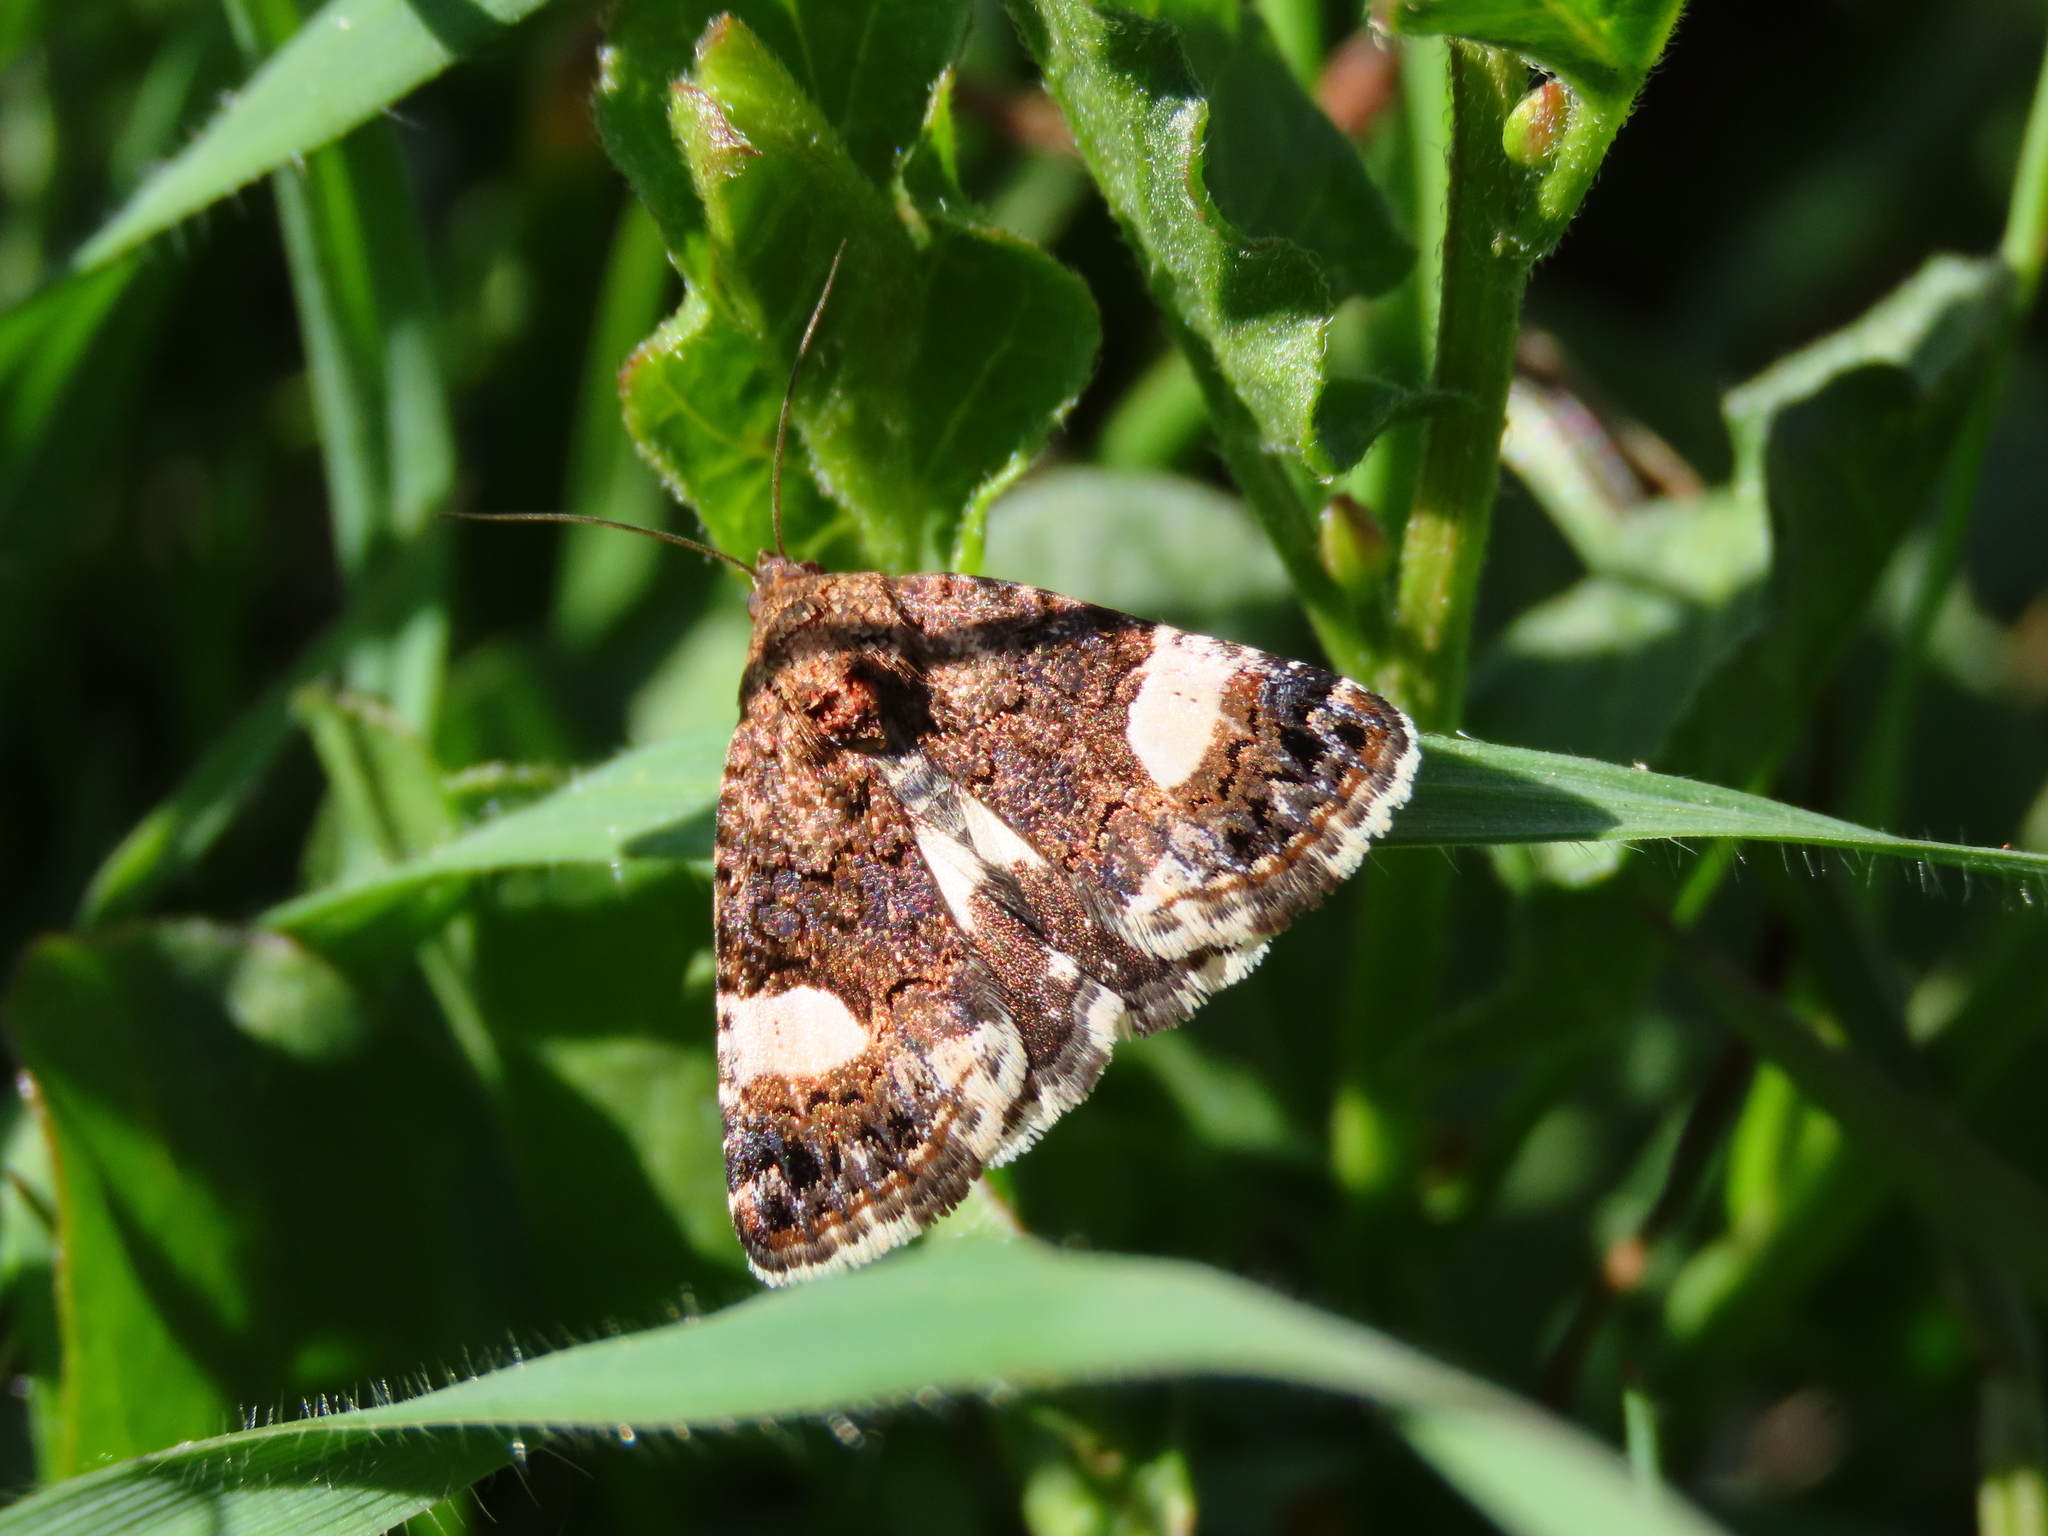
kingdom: Animalia
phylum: Arthropoda
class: Insecta
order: Lepidoptera
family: Erebidae
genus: Tyta
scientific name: Tyta luctuosa
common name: Four-spotted
